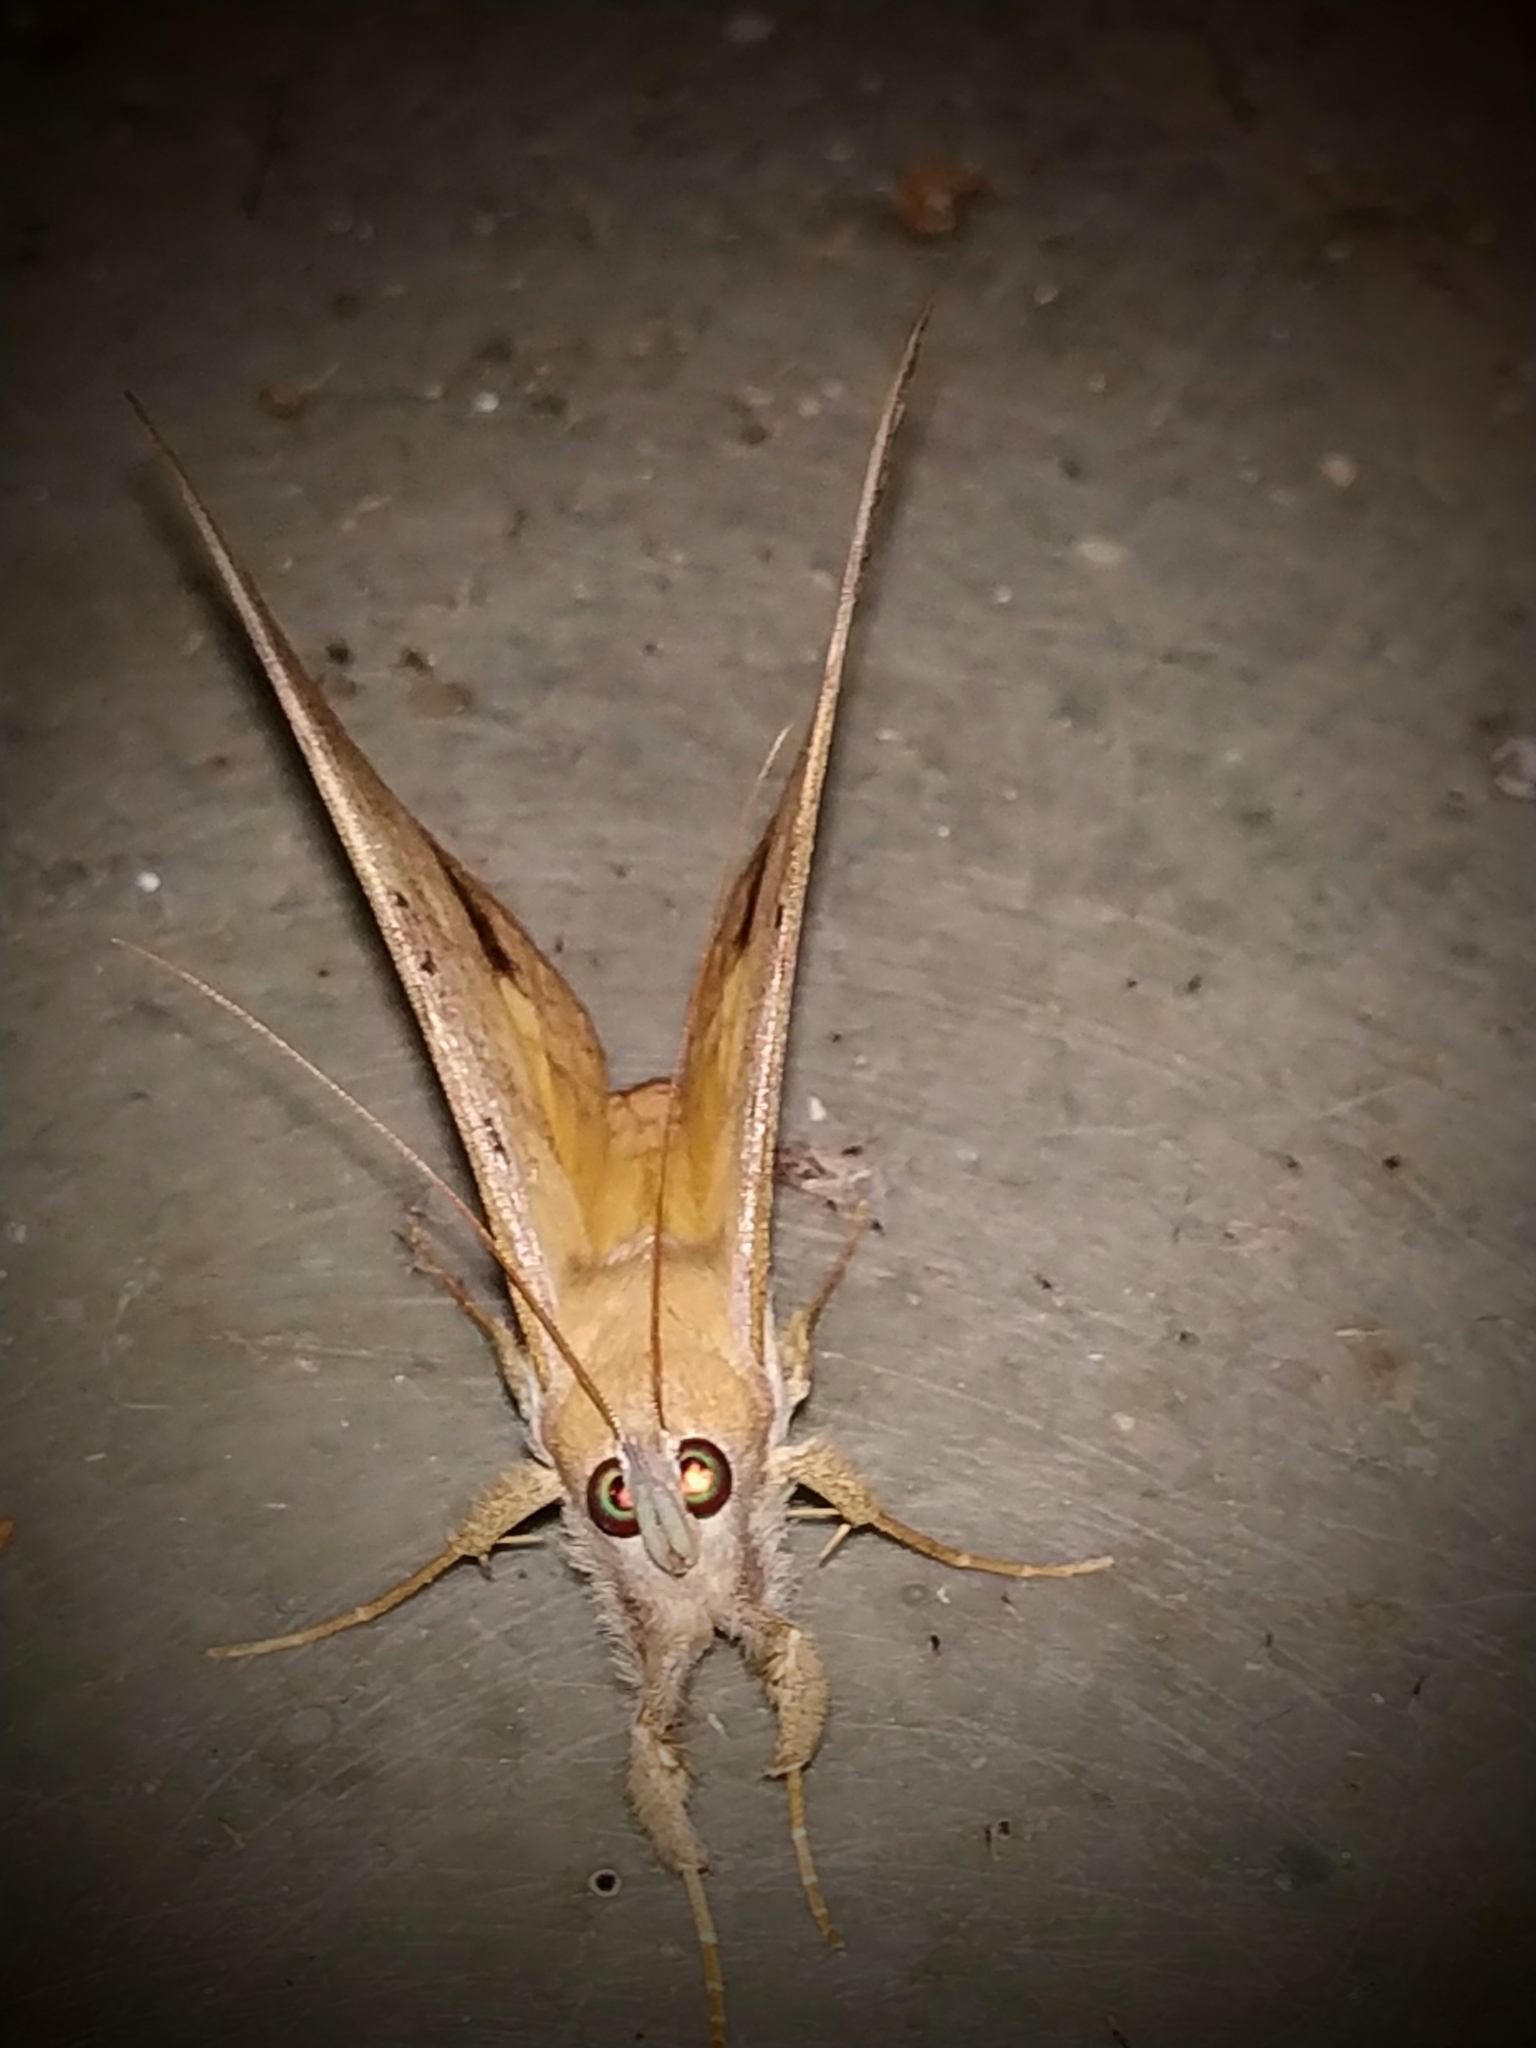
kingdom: Animalia
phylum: Arthropoda
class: Insecta
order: Lepidoptera
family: Erebidae
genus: Oxyodes
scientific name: Oxyodes scrobiculata
